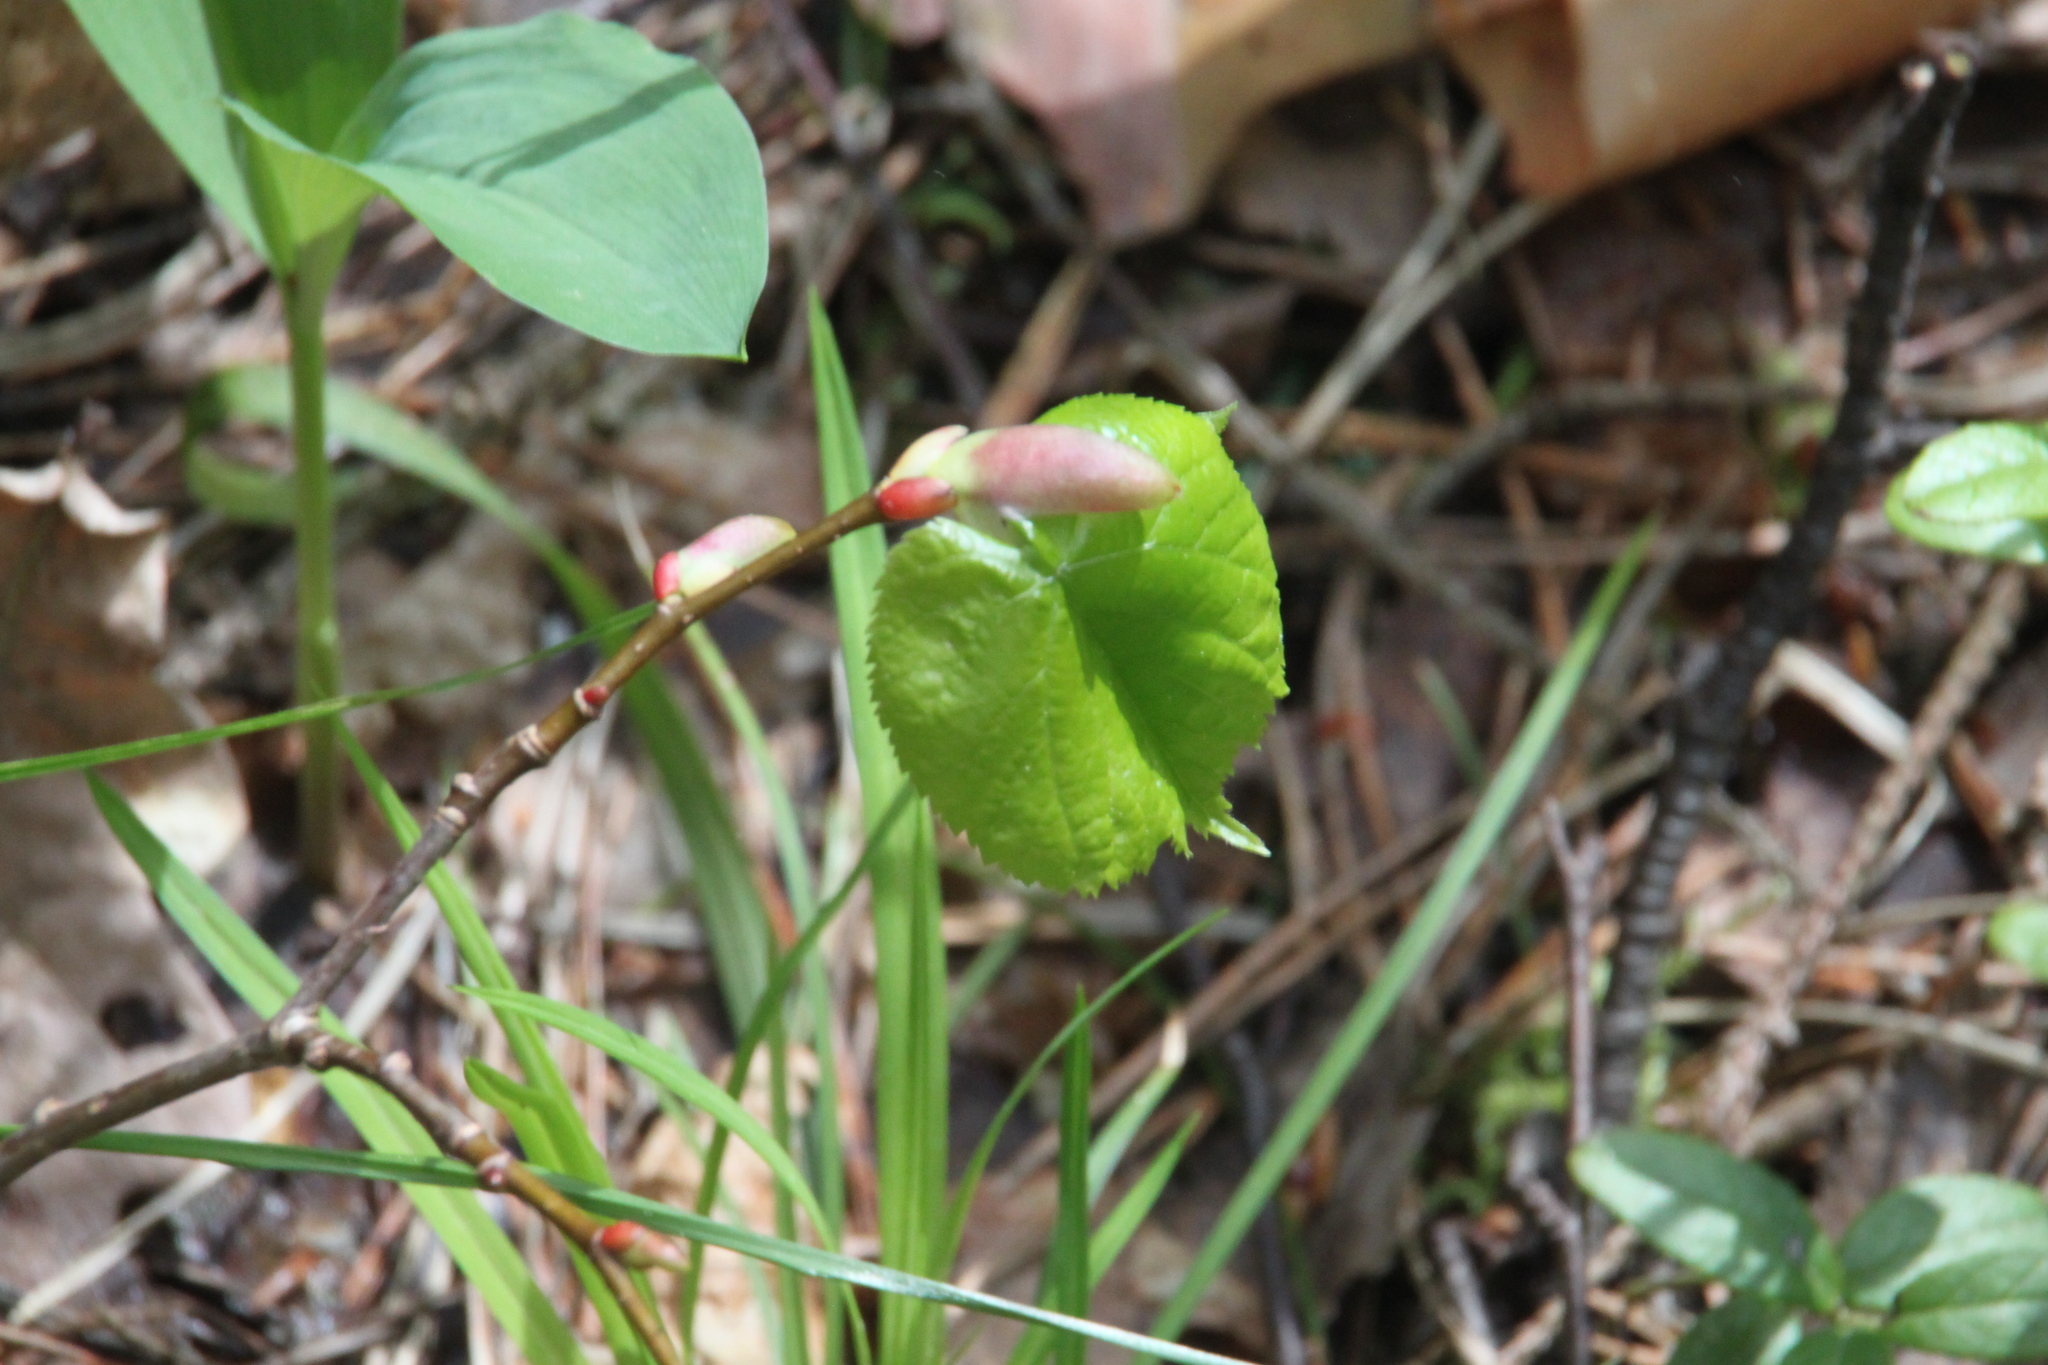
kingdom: Plantae
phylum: Tracheophyta
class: Magnoliopsida
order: Malvales
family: Malvaceae
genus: Tilia
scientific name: Tilia cordata
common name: Small-leaved lime
